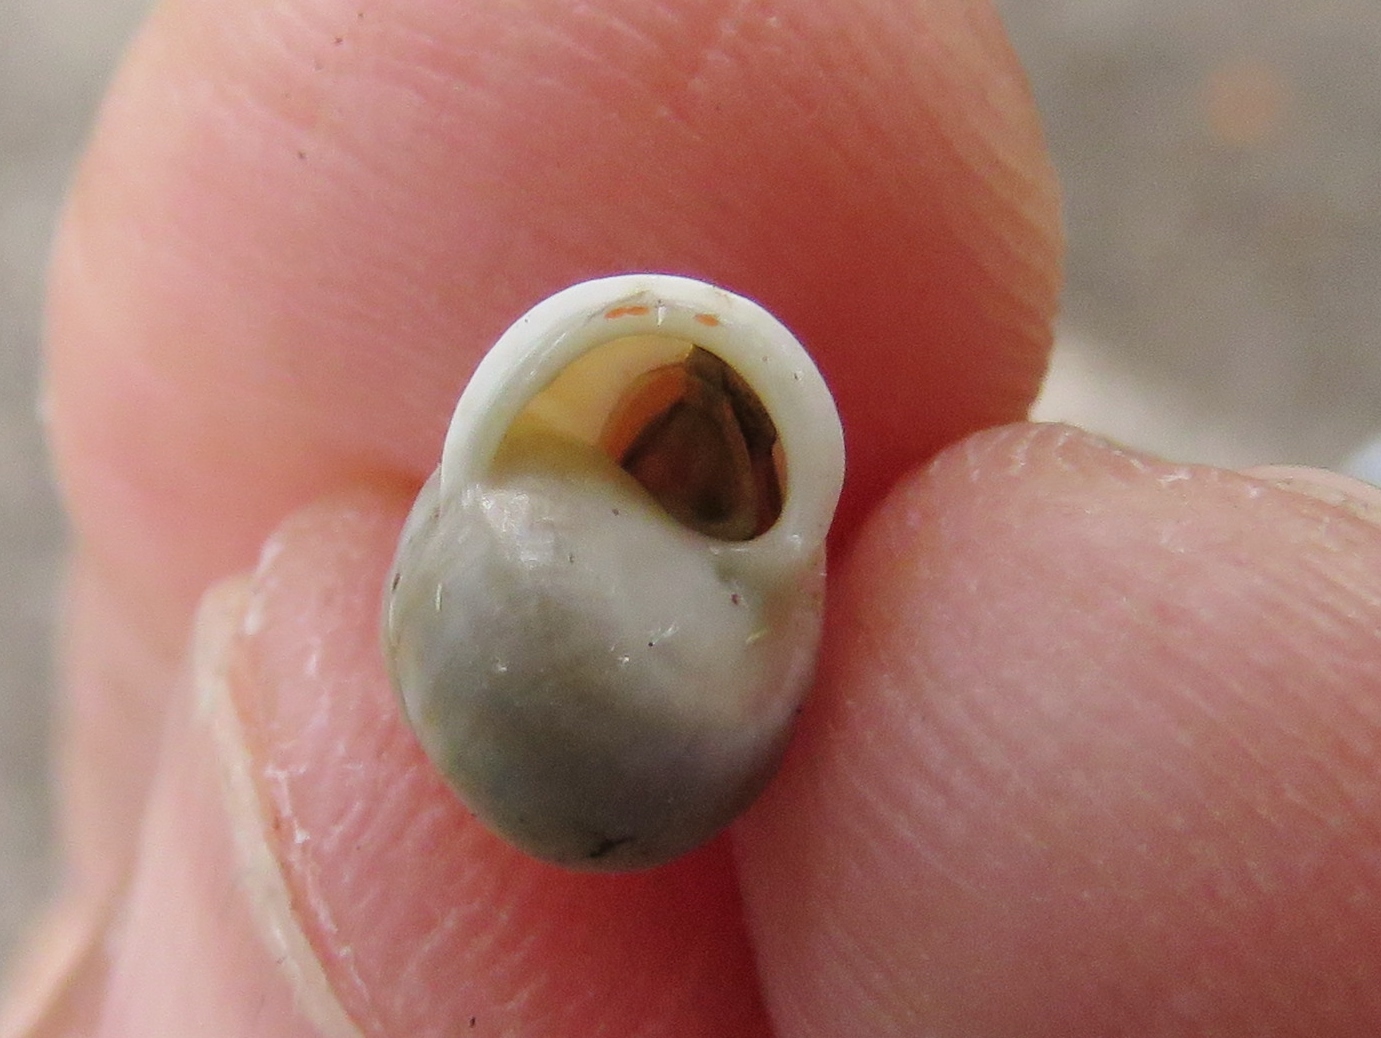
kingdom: Animalia
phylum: Mollusca
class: Gastropoda
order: Cycloneritida
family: Helicinidae
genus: Helicina
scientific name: Helicina orbiculata
